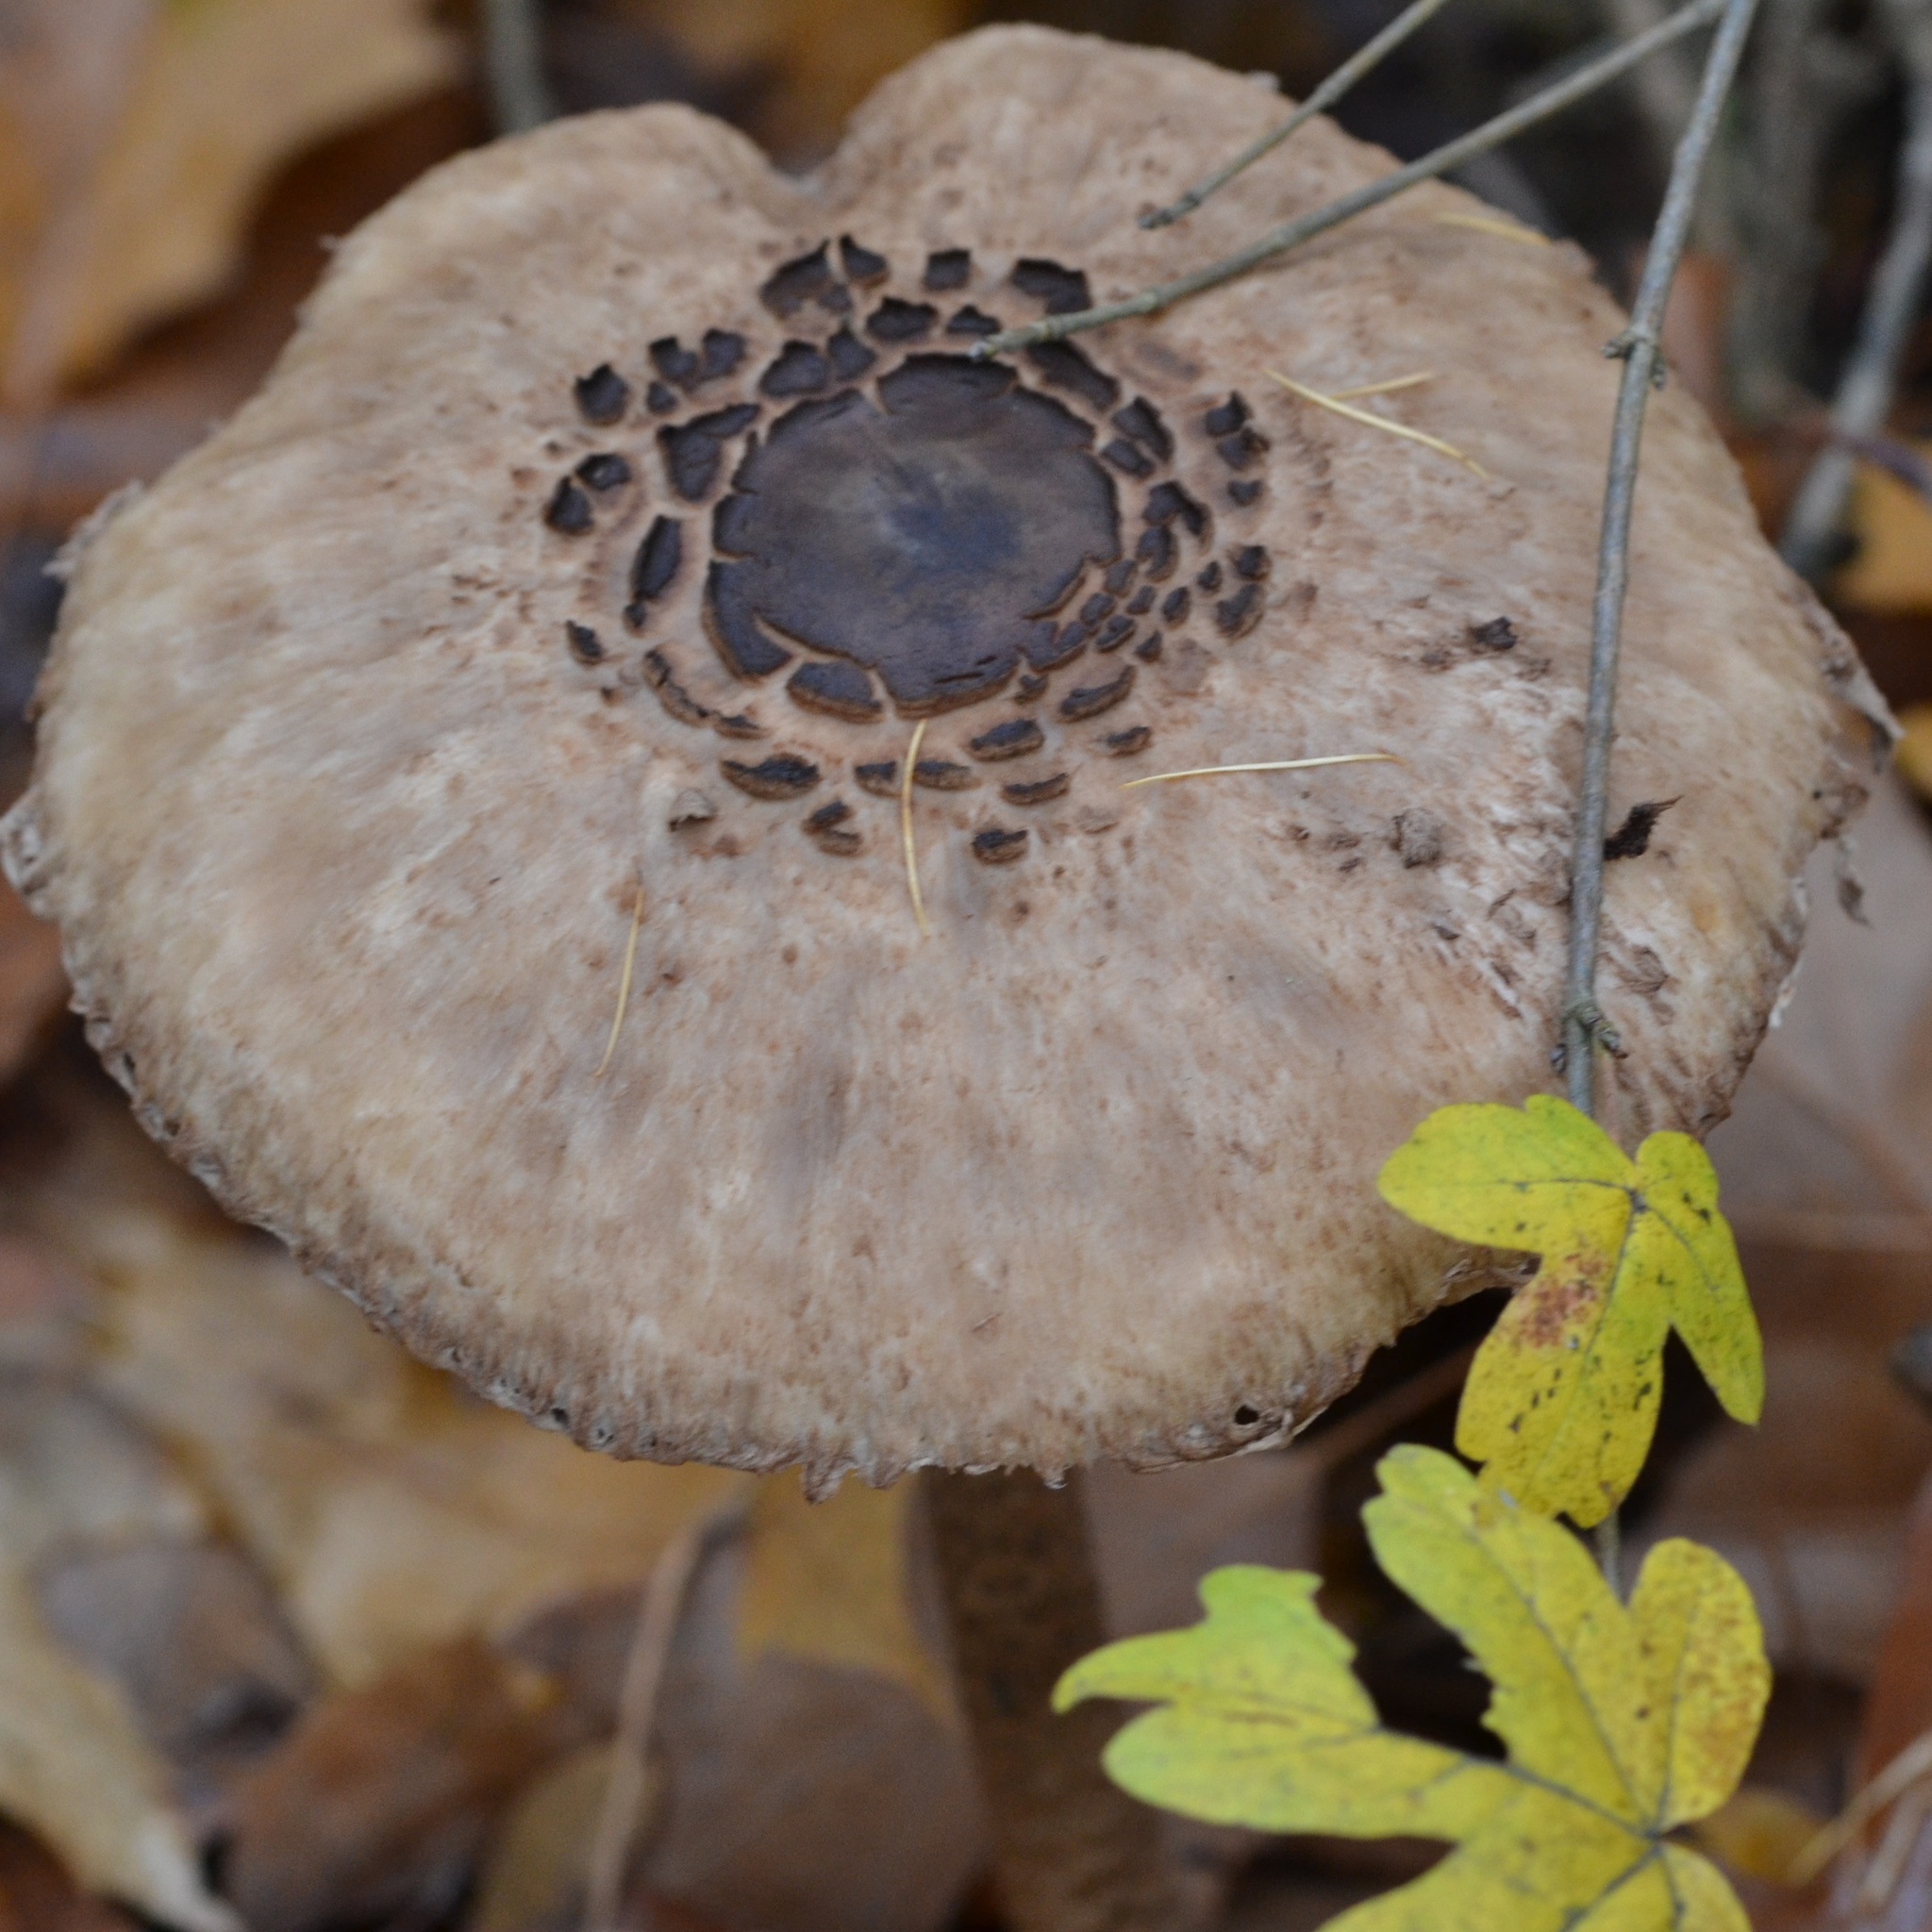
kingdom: Fungi
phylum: Basidiomycota
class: Agaricomycetes
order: Agaricales
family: Agaricaceae
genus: Macrolepiota
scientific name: Macrolepiota procera
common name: Parasol
